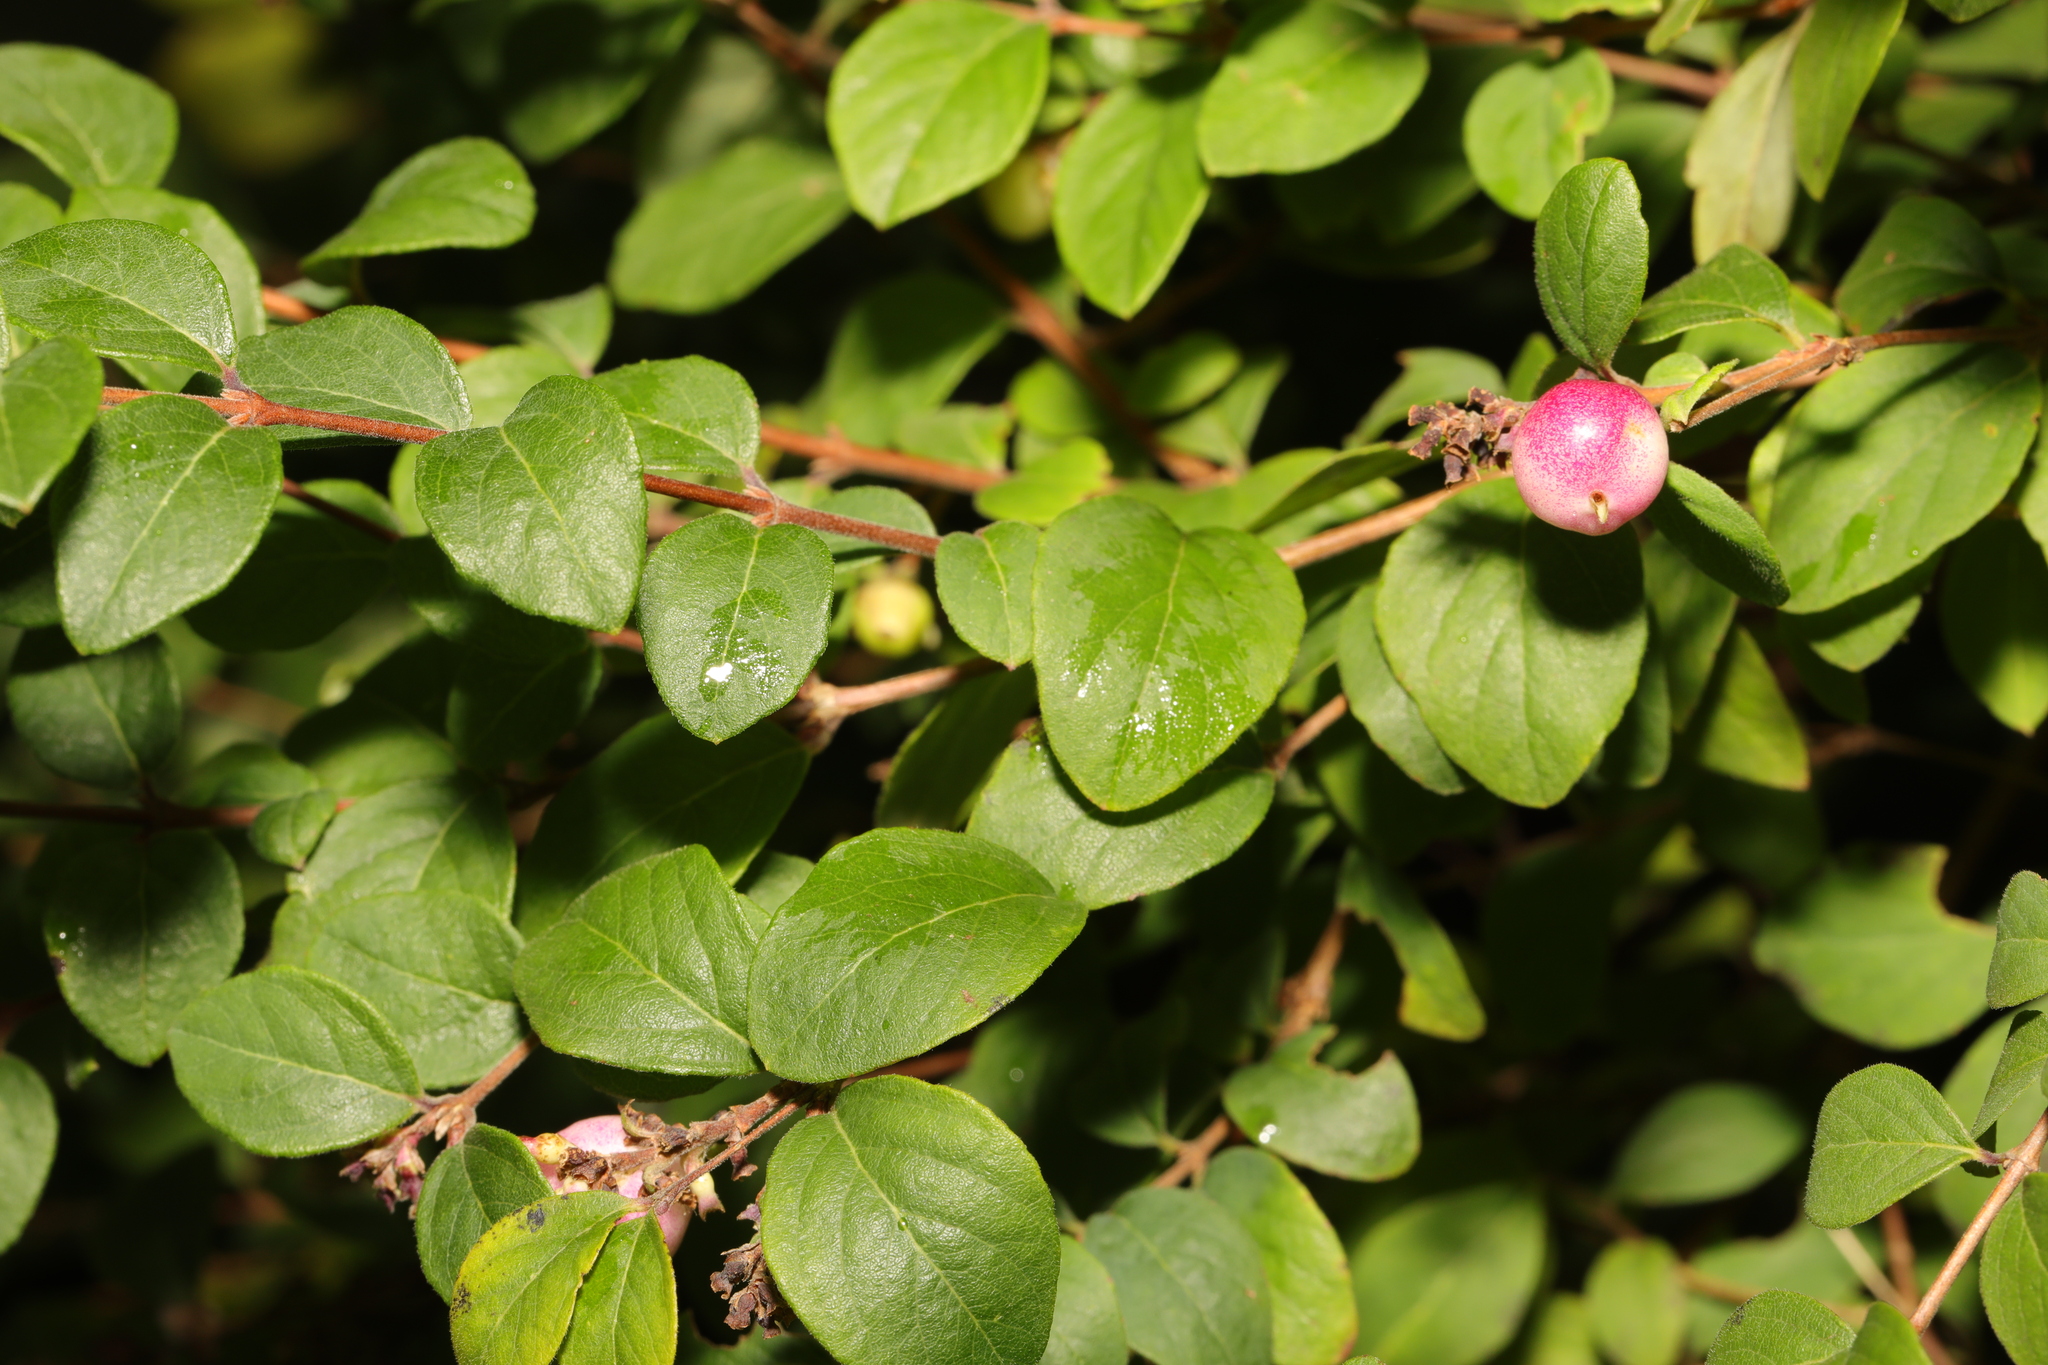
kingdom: Plantae
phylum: Tracheophyta
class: Magnoliopsida
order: Dipsacales
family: Caprifoliaceae
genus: Symphoricarpos
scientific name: Symphoricarpos chenaultii
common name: Hybrid coralberry
